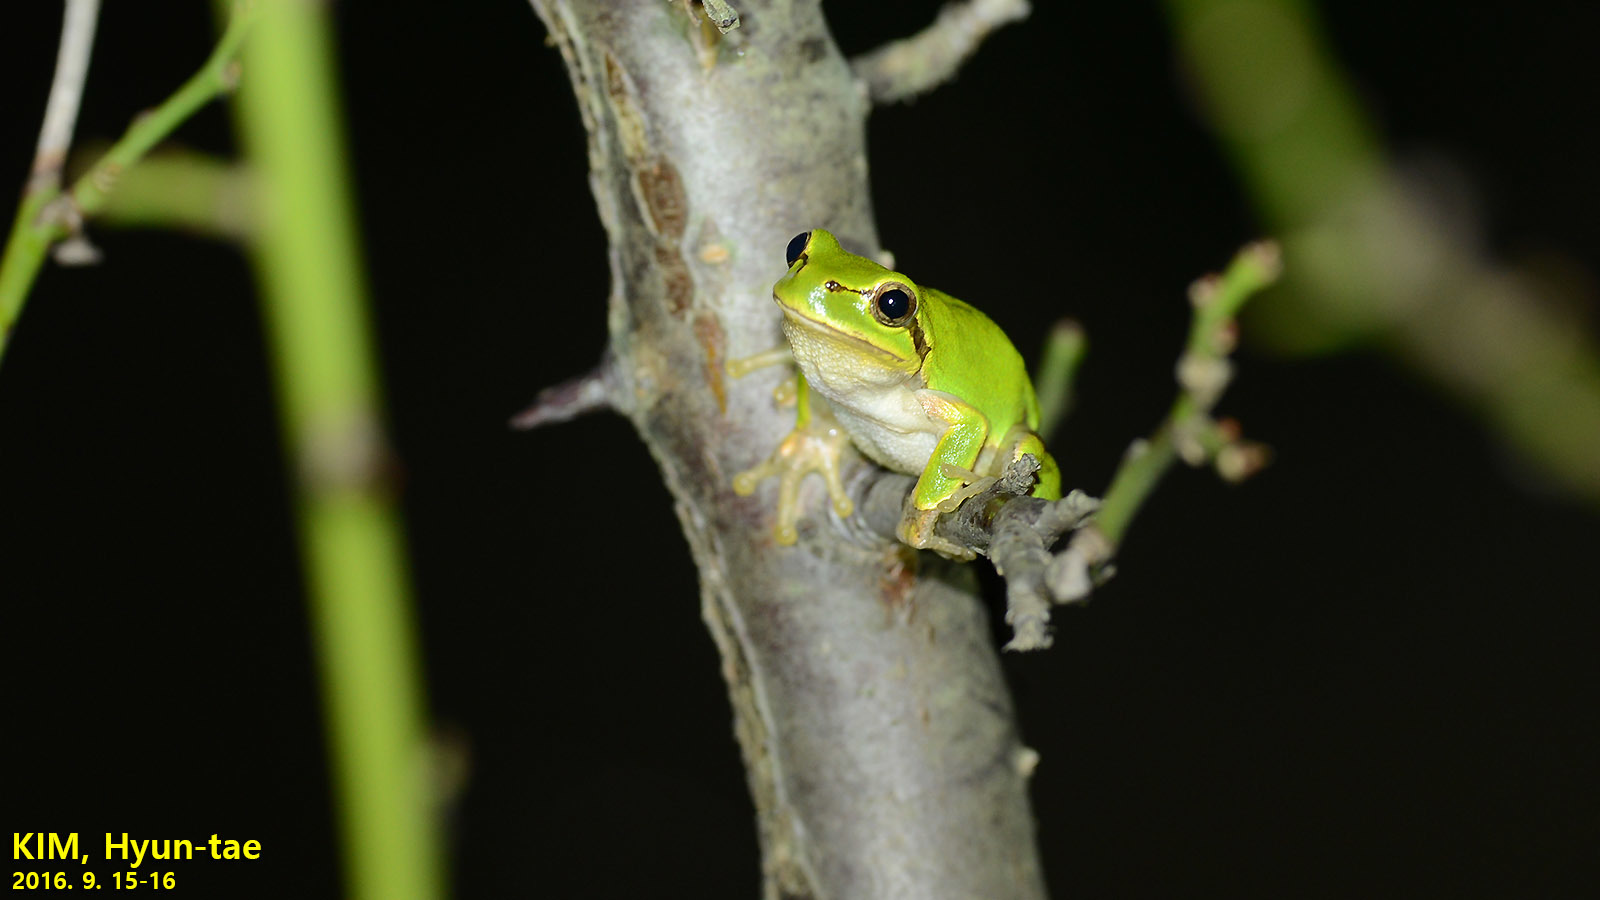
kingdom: Animalia
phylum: Chordata
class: Amphibia
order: Anura
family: Hylidae
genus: Dryophytes
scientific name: Dryophytes japonicus
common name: Japanese treefrog
